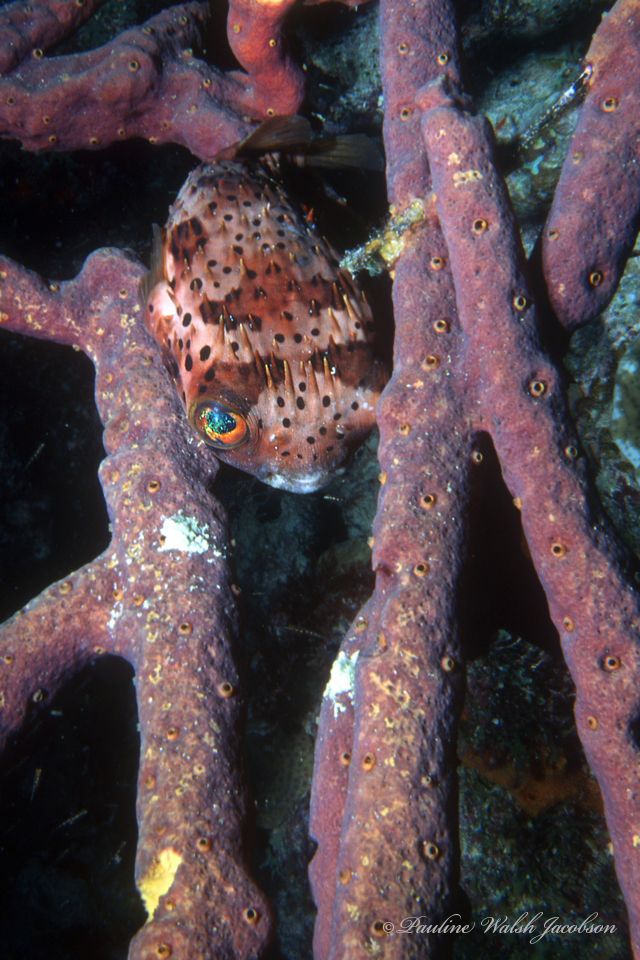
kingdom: Animalia
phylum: Chordata
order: Tetraodontiformes
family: Diodontidae
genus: Diodon
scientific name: Diodon holocanthus
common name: Balloonfish
